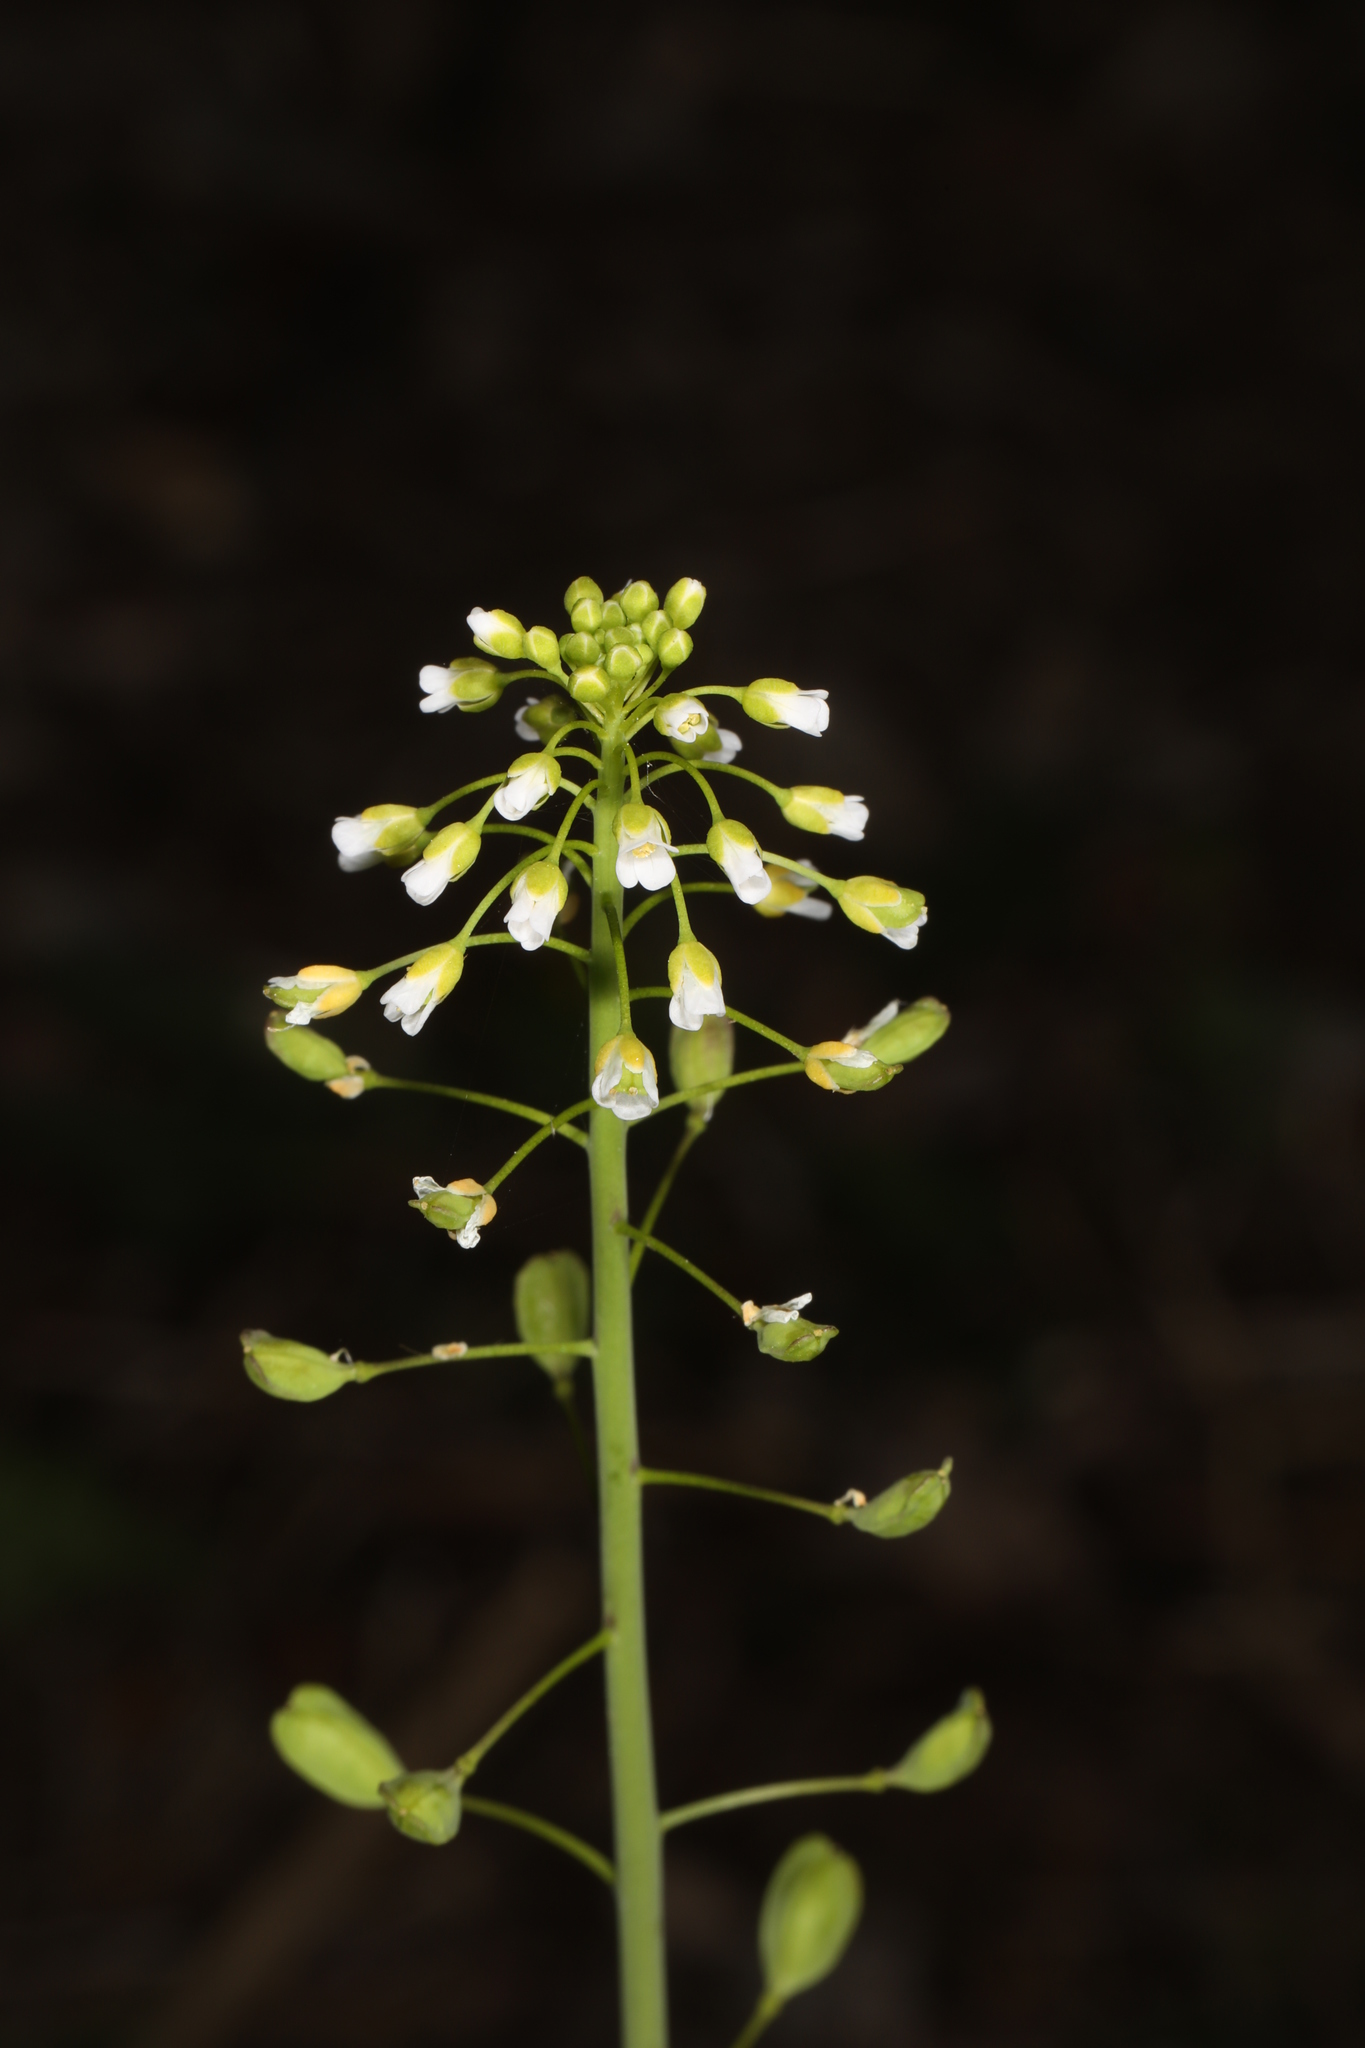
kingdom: Plantae
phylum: Tracheophyta
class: Magnoliopsida
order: Brassicales
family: Brassicaceae
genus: Capsella
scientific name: Capsella bursa-pastoris
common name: Shepherd's purse
